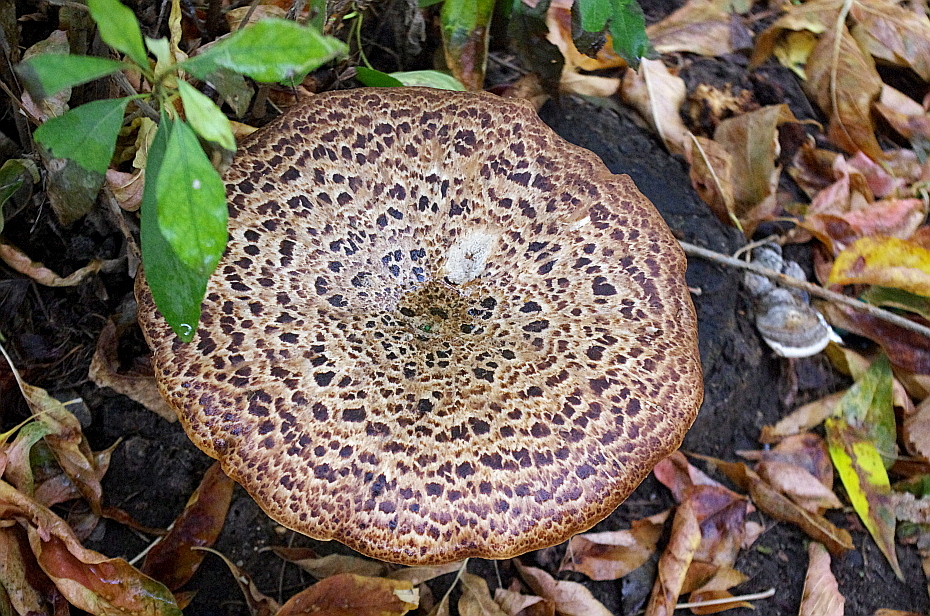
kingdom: Fungi
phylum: Basidiomycota
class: Agaricomycetes
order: Polyporales
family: Polyporaceae
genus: Cerioporus
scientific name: Cerioporus squamosus
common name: Dryad's saddle
